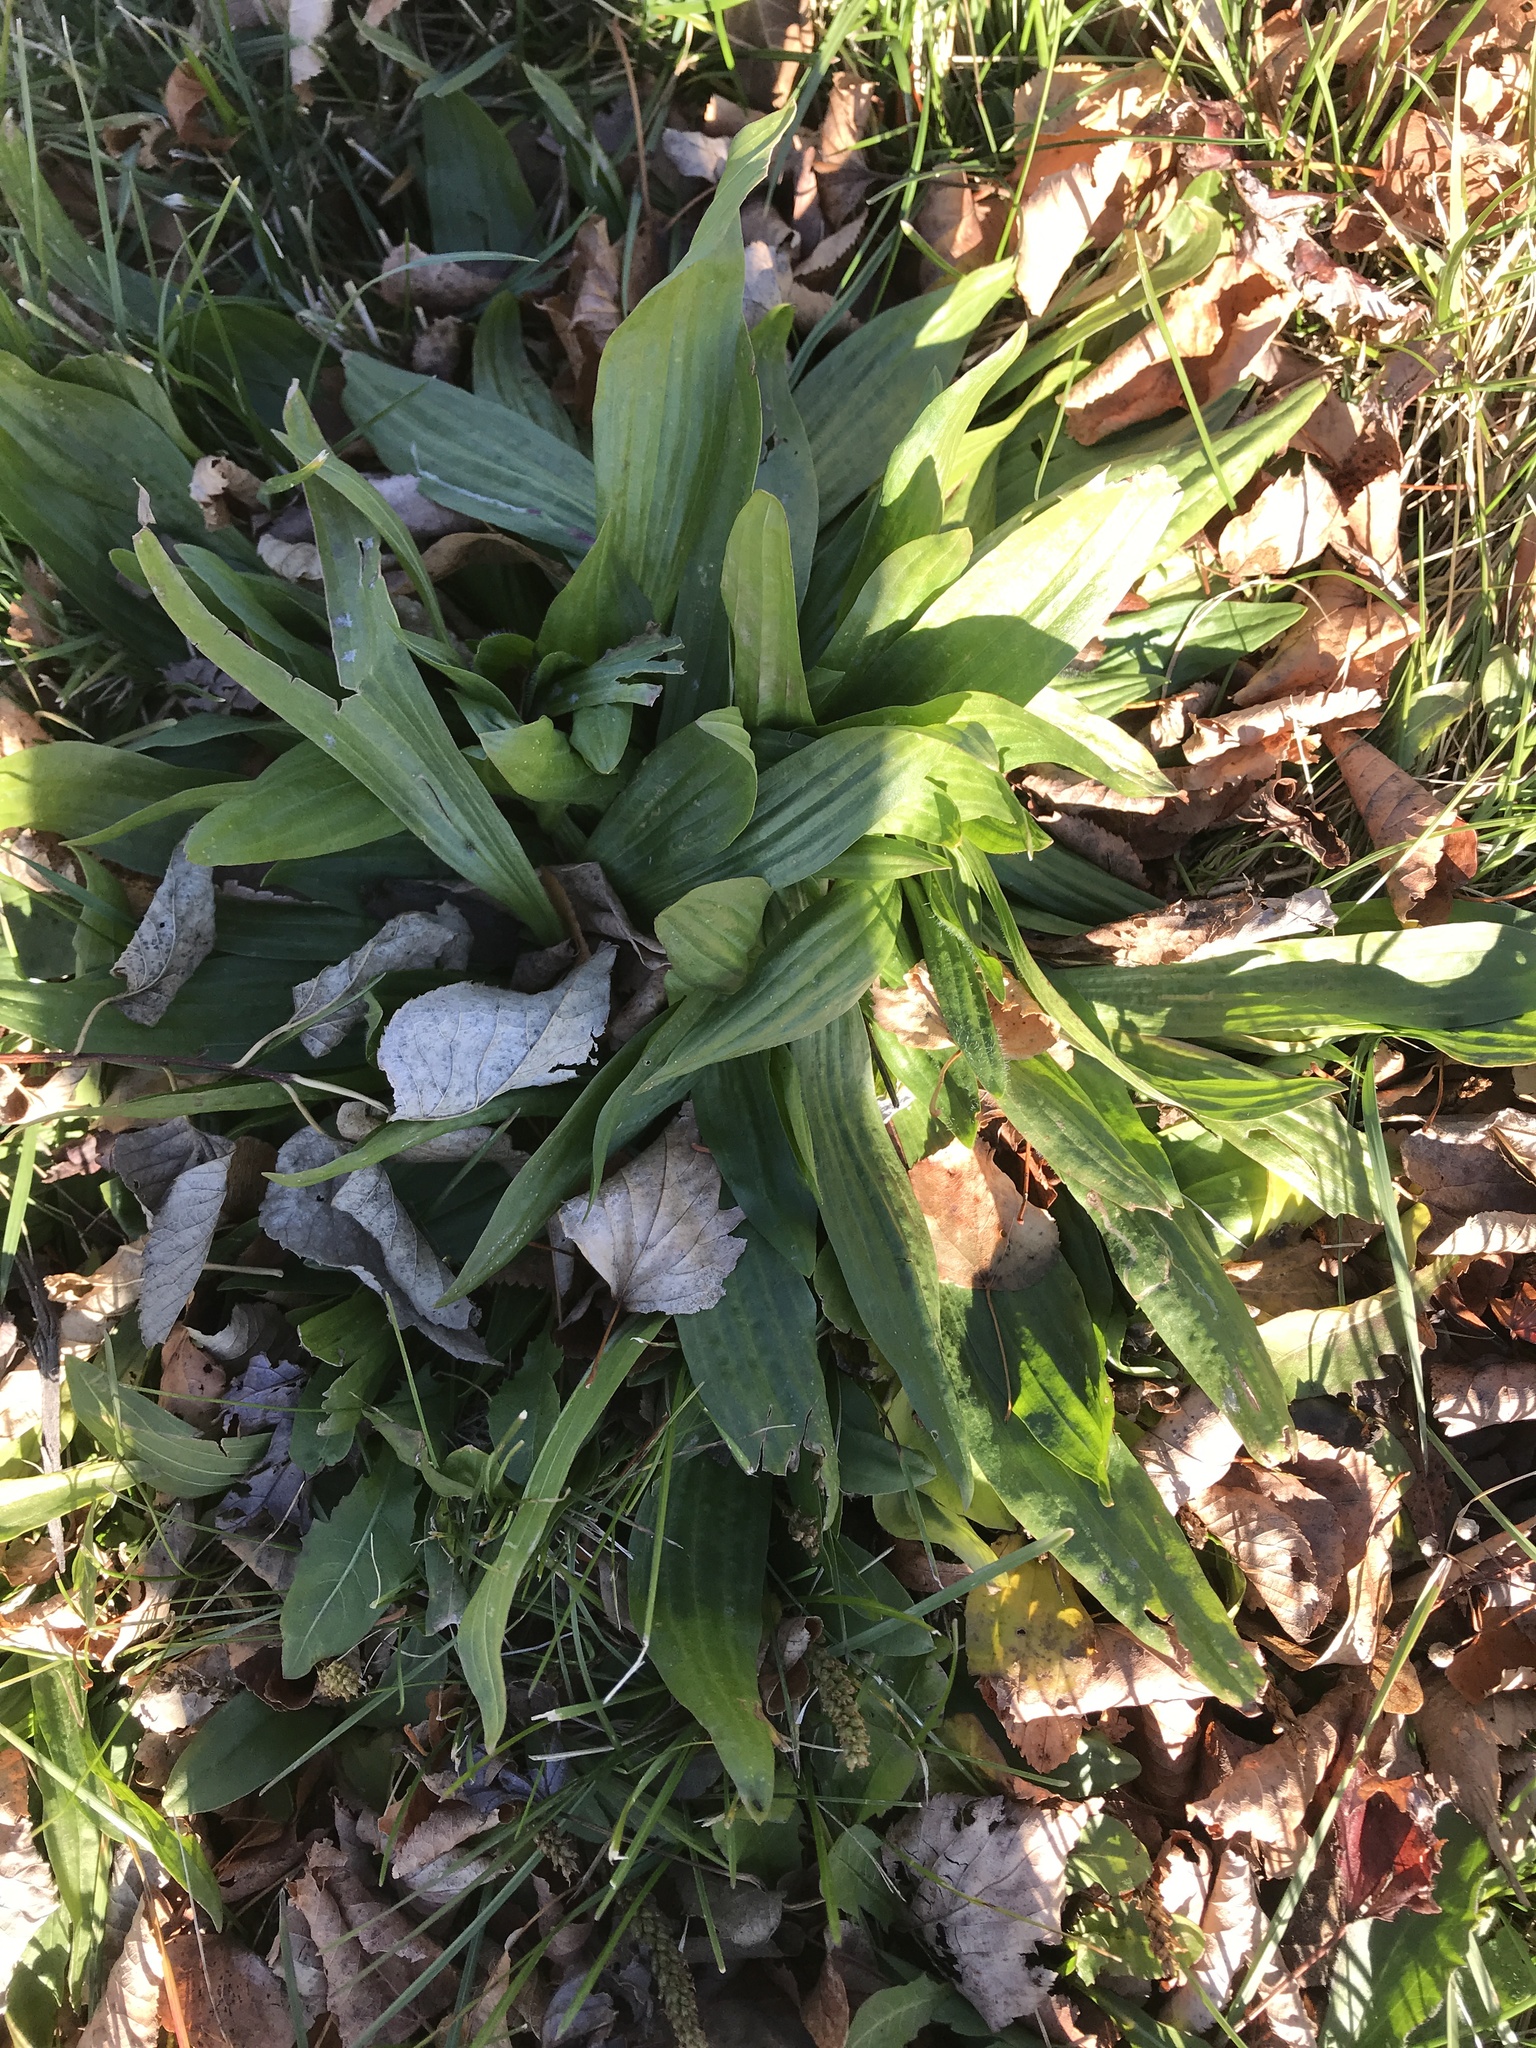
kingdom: Plantae
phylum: Tracheophyta
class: Magnoliopsida
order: Lamiales
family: Plantaginaceae
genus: Plantago
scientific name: Plantago lanceolata
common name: Ribwort plantain
